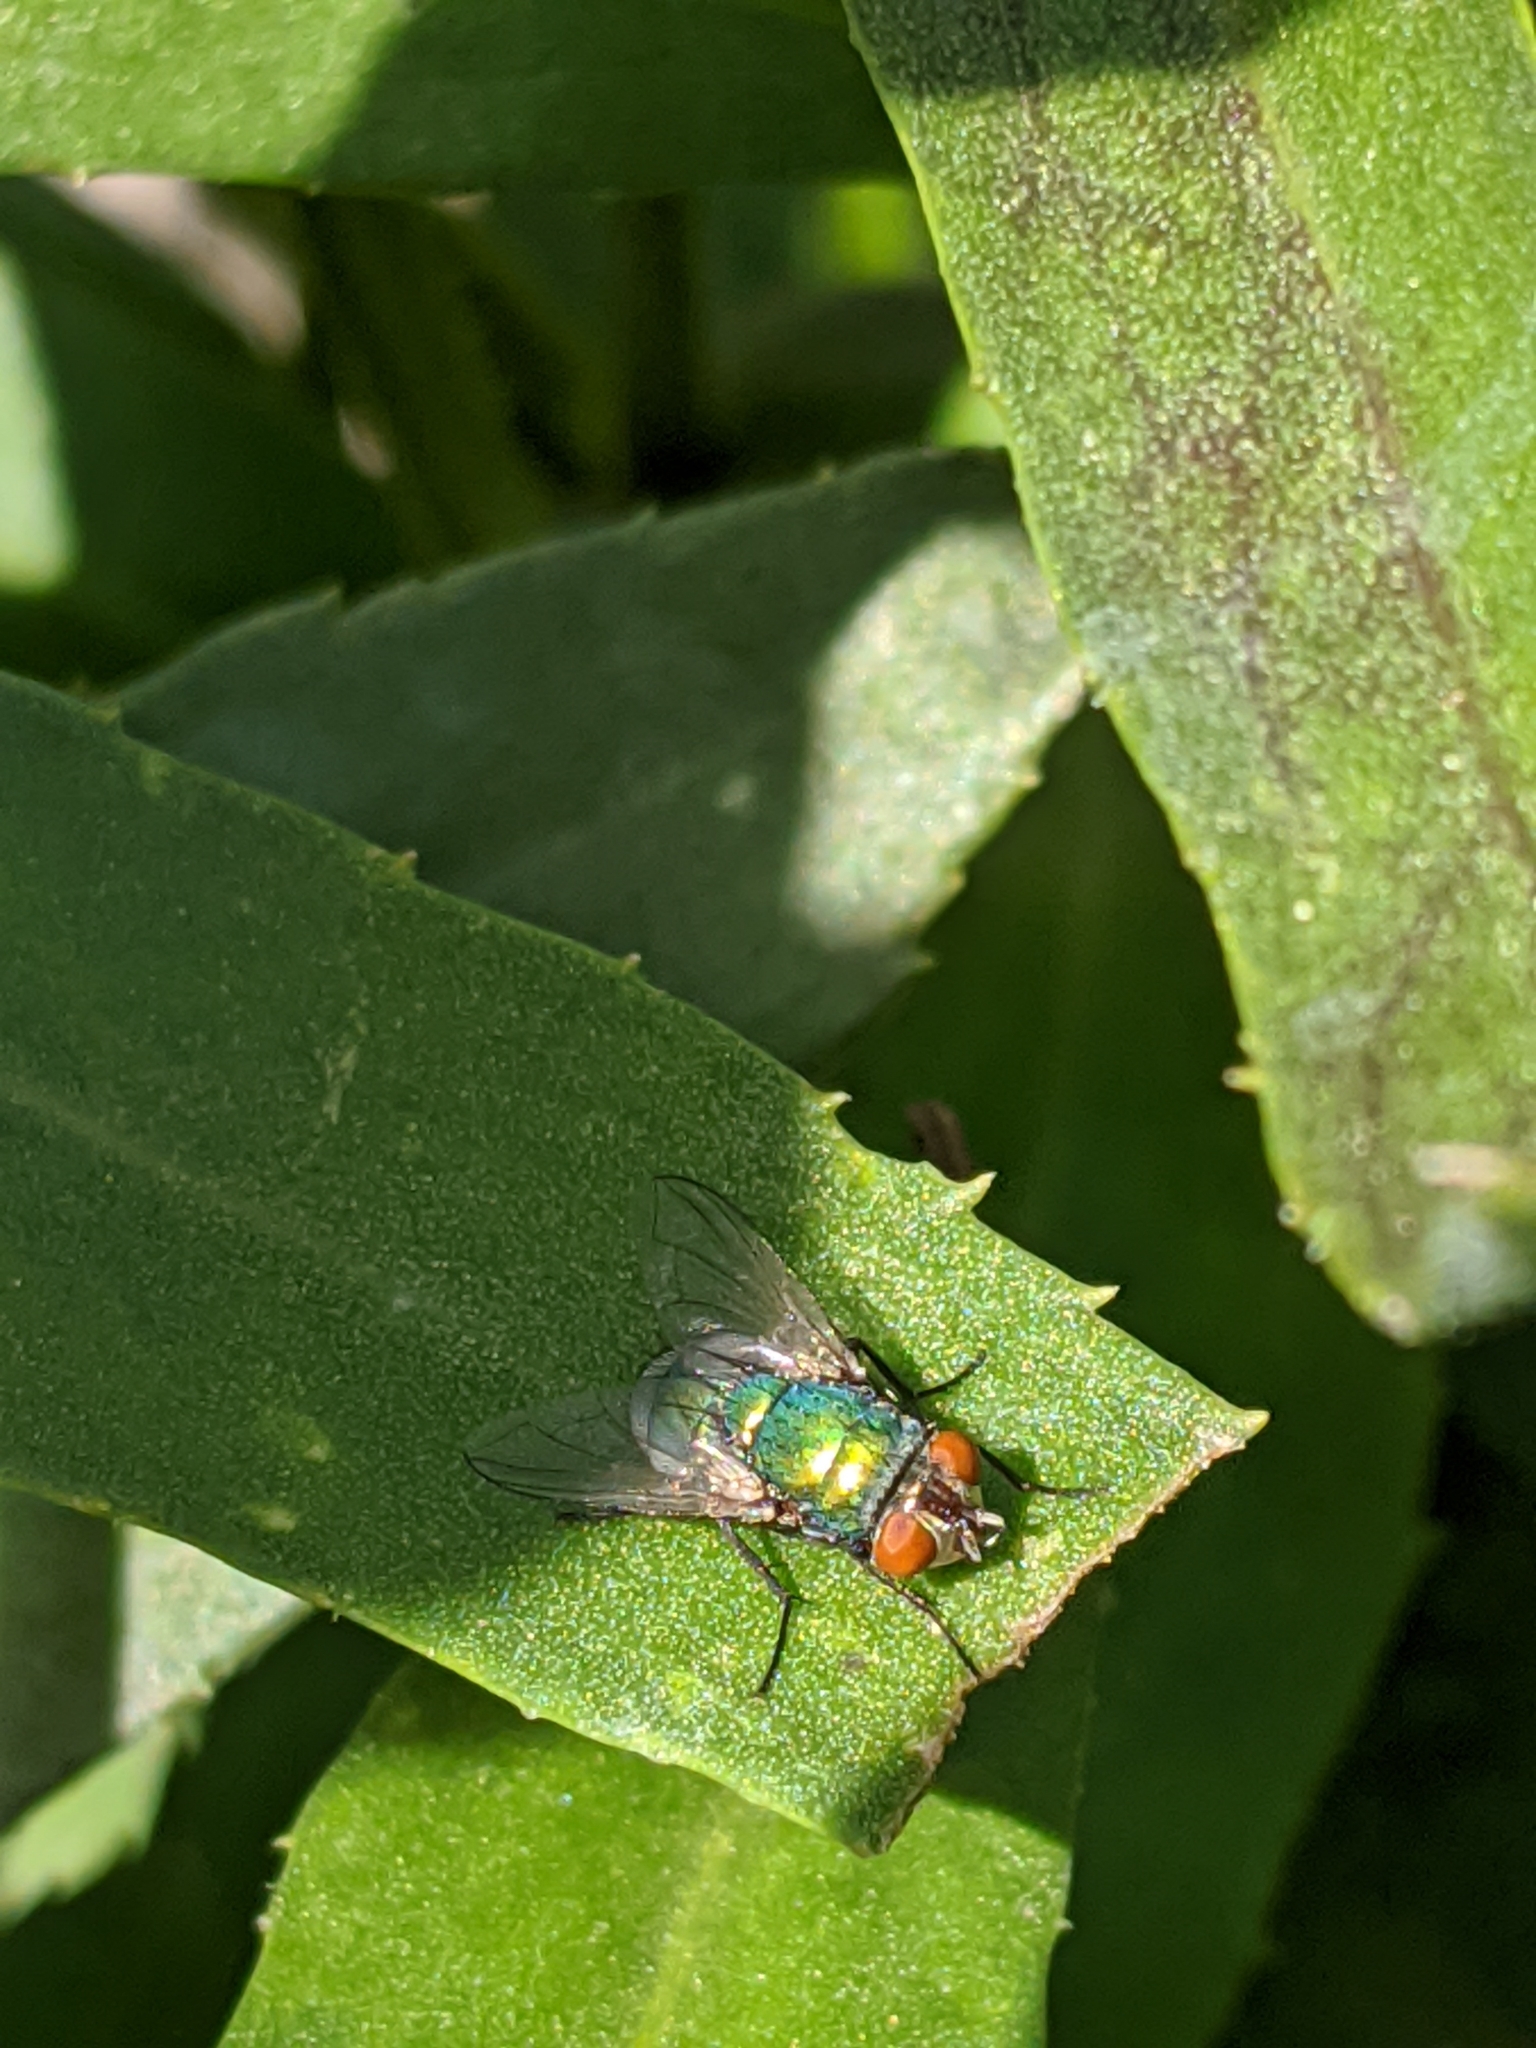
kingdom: Animalia
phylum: Arthropoda
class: Insecta
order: Diptera
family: Calliphoridae
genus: Lucilia
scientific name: Lucilia sericata
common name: Blow fly
